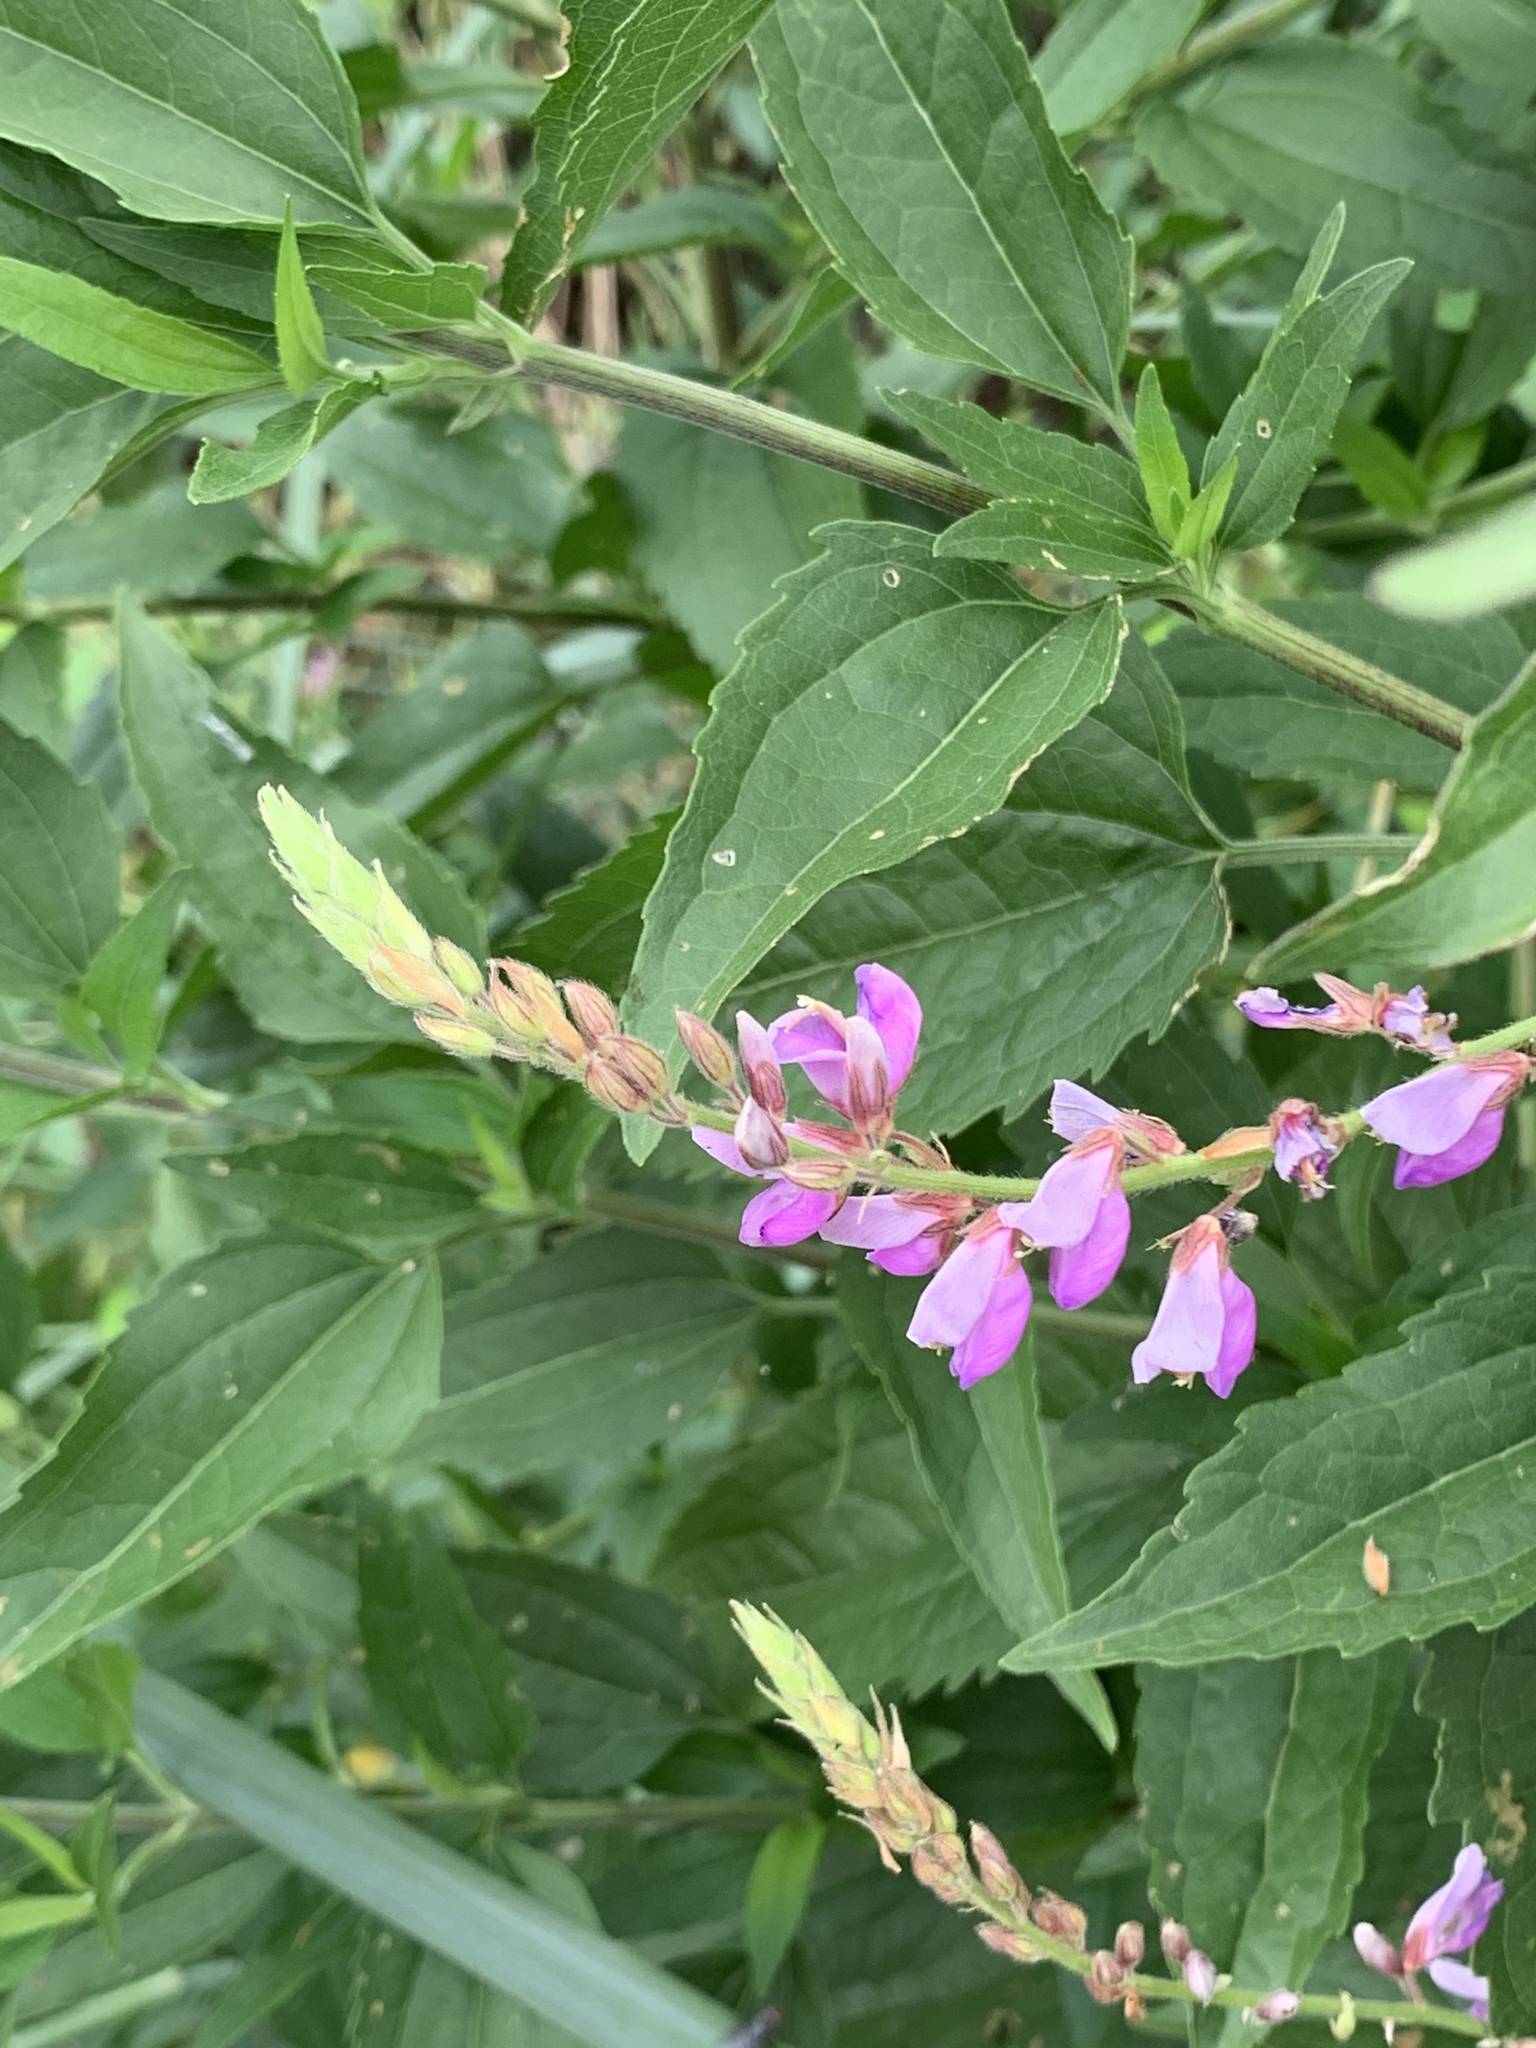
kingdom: Plantae
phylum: Tracheophyta
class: Magnoliopsida
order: Fabales
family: Fabaceae
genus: Desmodium
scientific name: Desmodium canadense
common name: Canada tick-trefoil
